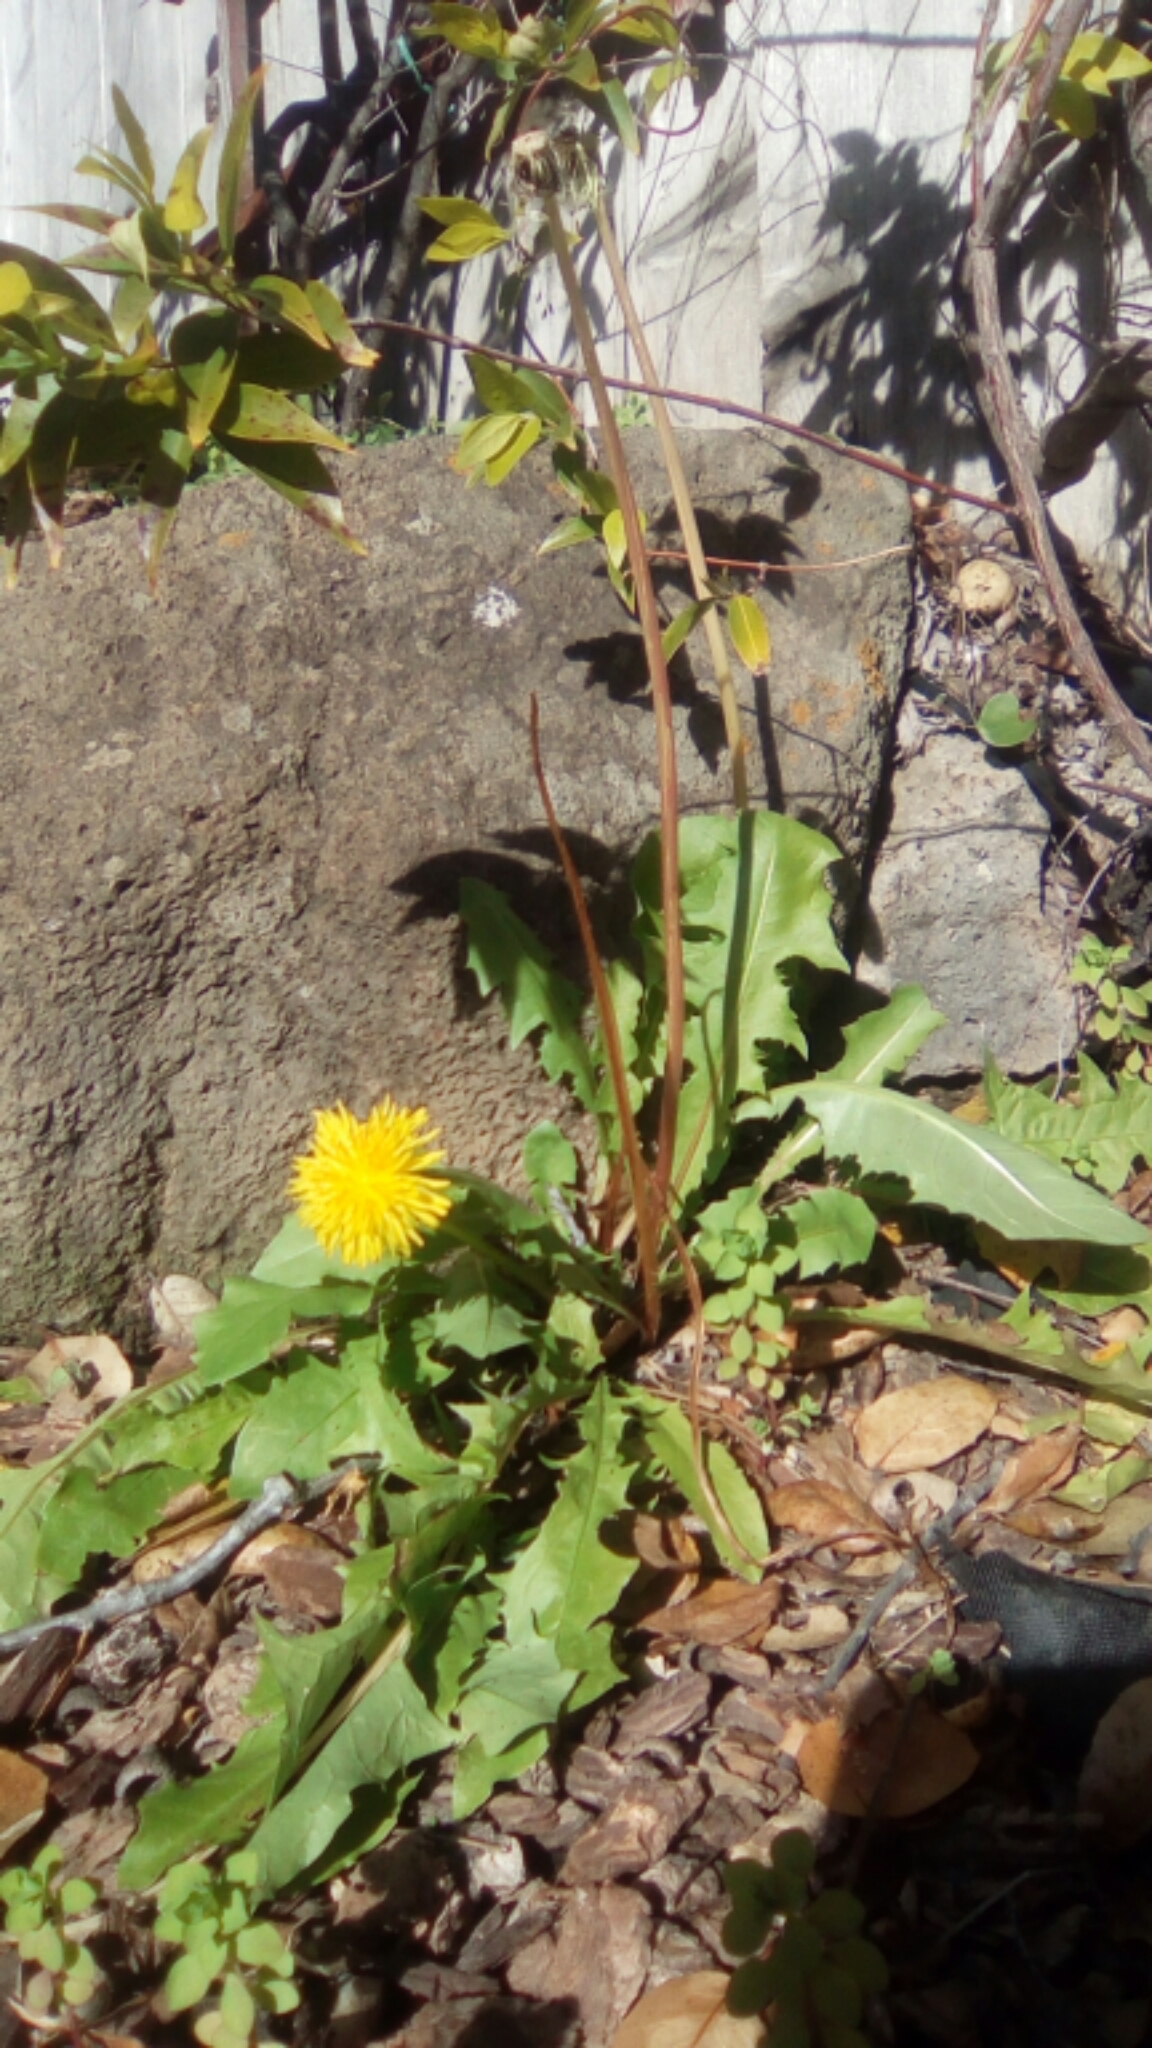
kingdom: Plantae
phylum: Tracheophyta
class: Magnoliopsida
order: Asterales
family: Asteraceae
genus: Taraxacum
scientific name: Taraxacum officinale
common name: Common dandelion
